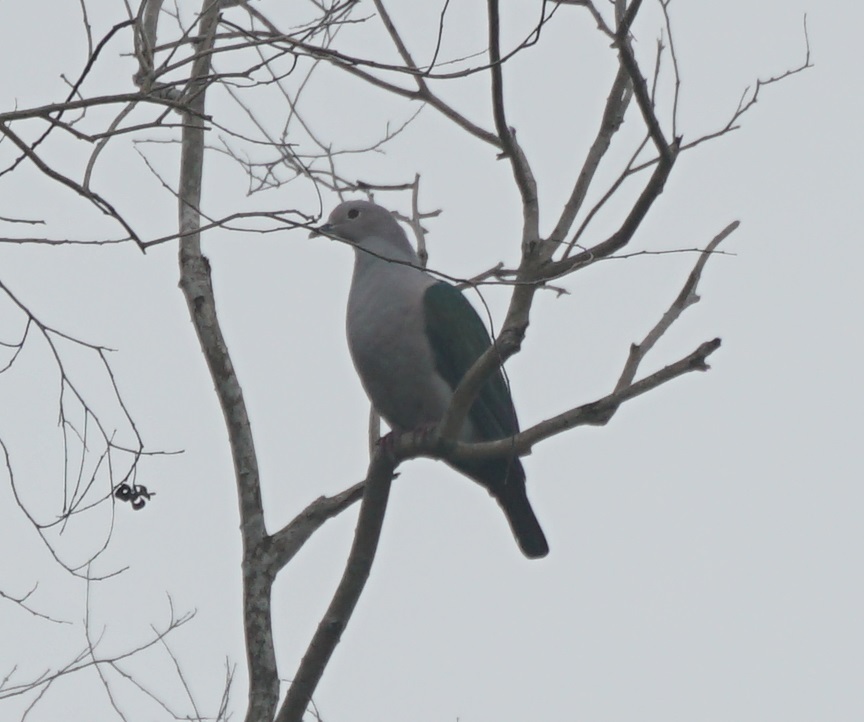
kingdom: Animalia
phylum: Chordata
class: Aves
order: Columbiformes
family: Columbidae
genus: Ducula
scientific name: Ducula aenea
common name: Green imperial pigeon
